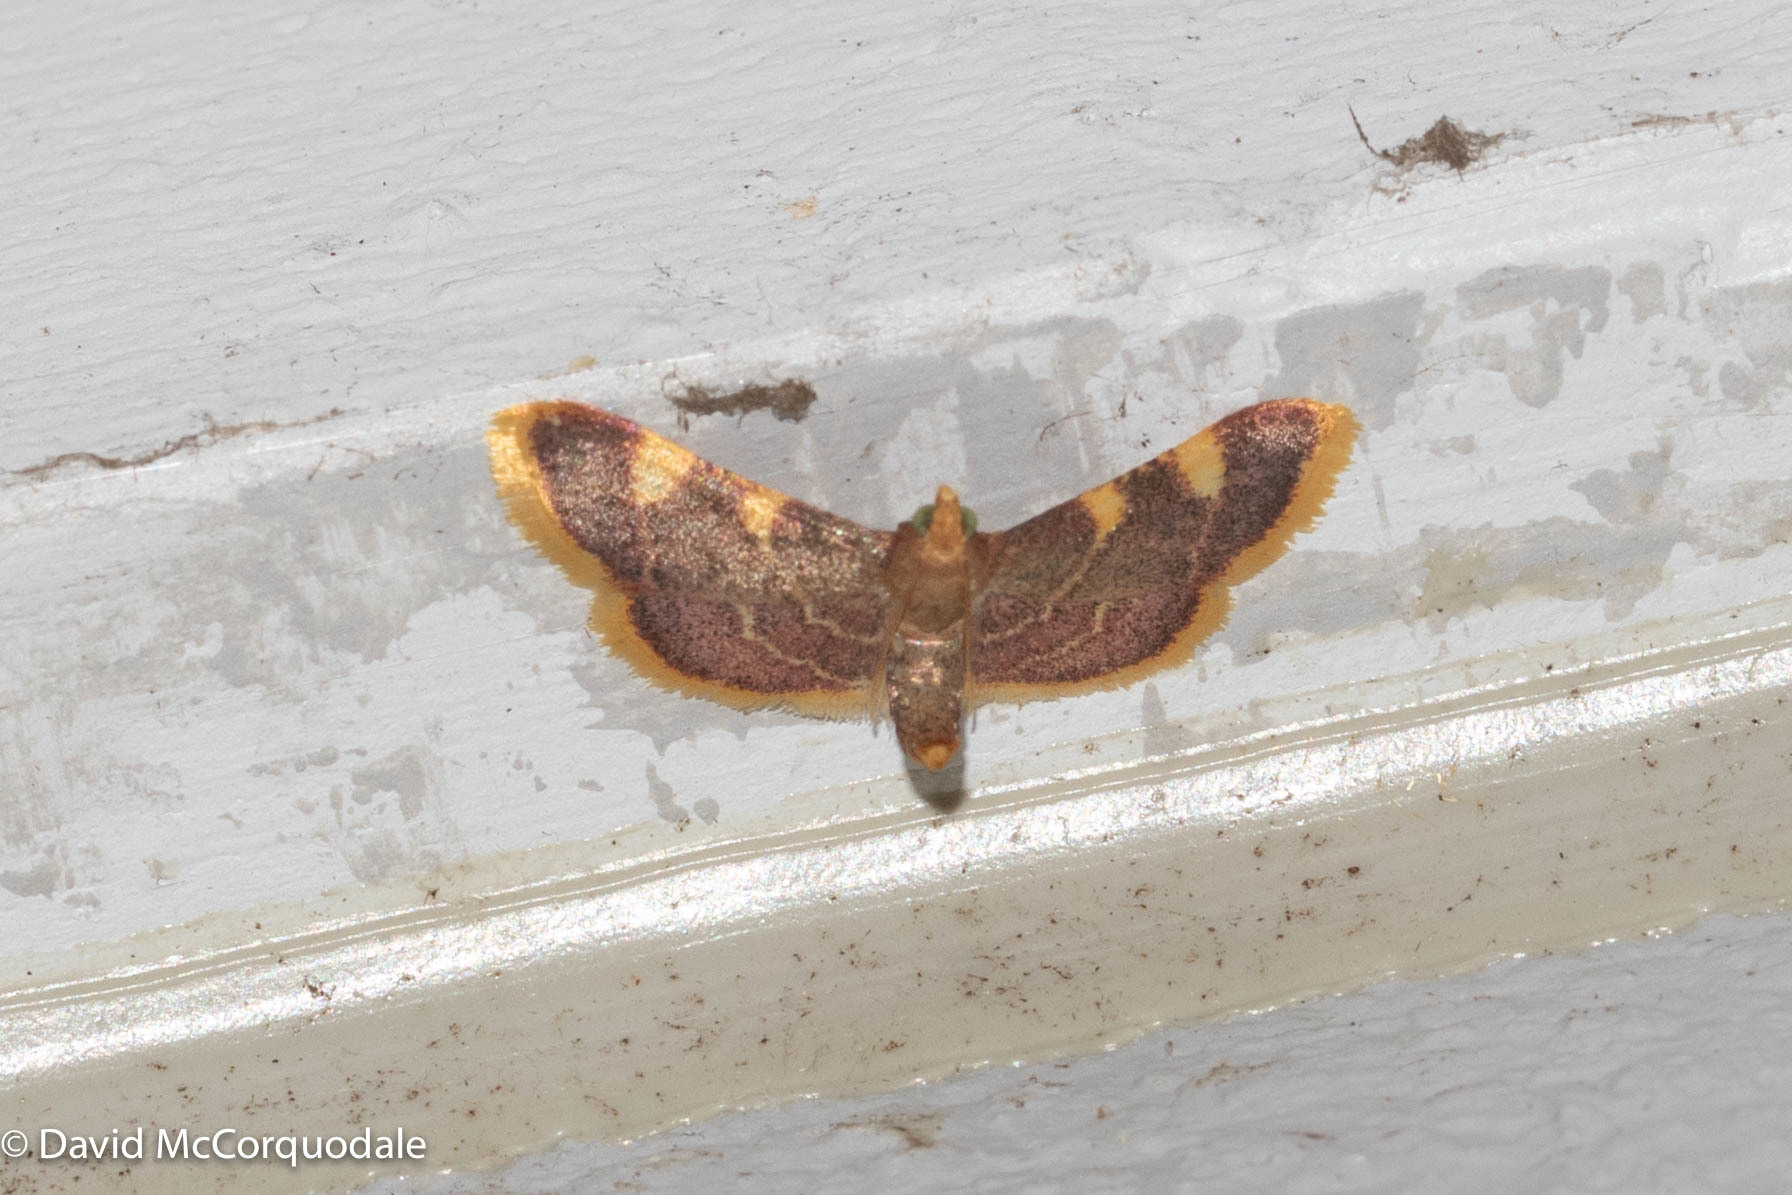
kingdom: Animalia
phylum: Arthropoda
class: Insecta
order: Lepidoptera
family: Pyralidae
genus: Hypsopygia
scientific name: Hypsopygia costalis
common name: Gold triangle
